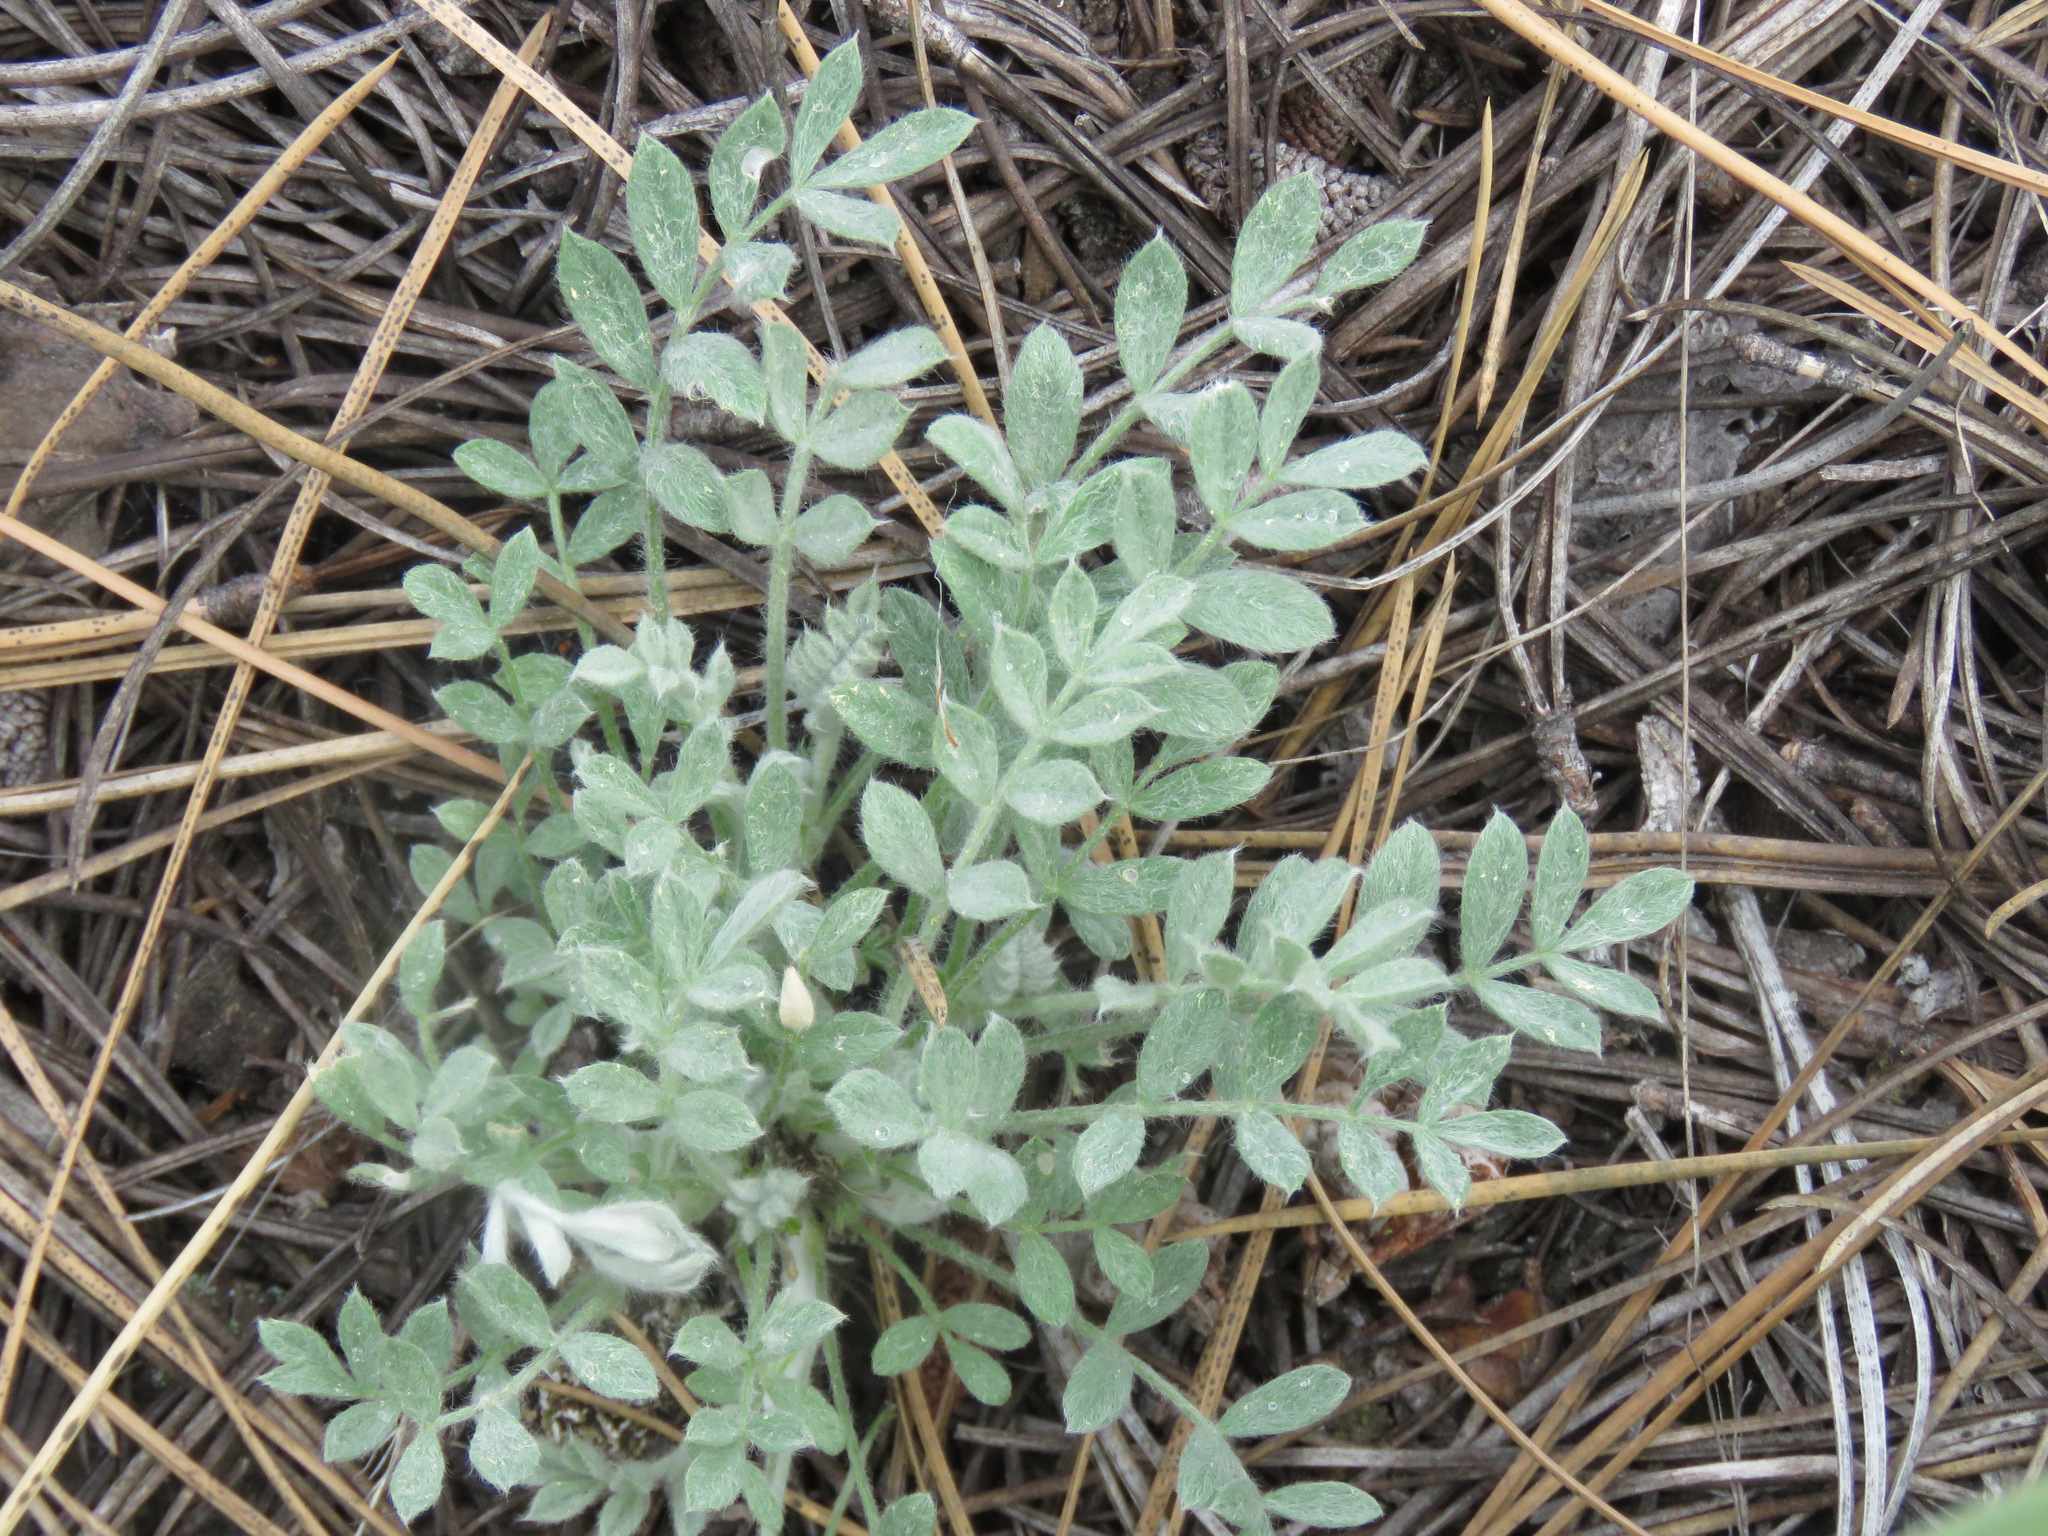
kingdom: Plantae
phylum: Tracheophyta
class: Magnoliopsida
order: Fabales
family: Fabaceae
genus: Astragalus
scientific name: Astragalus purshii
